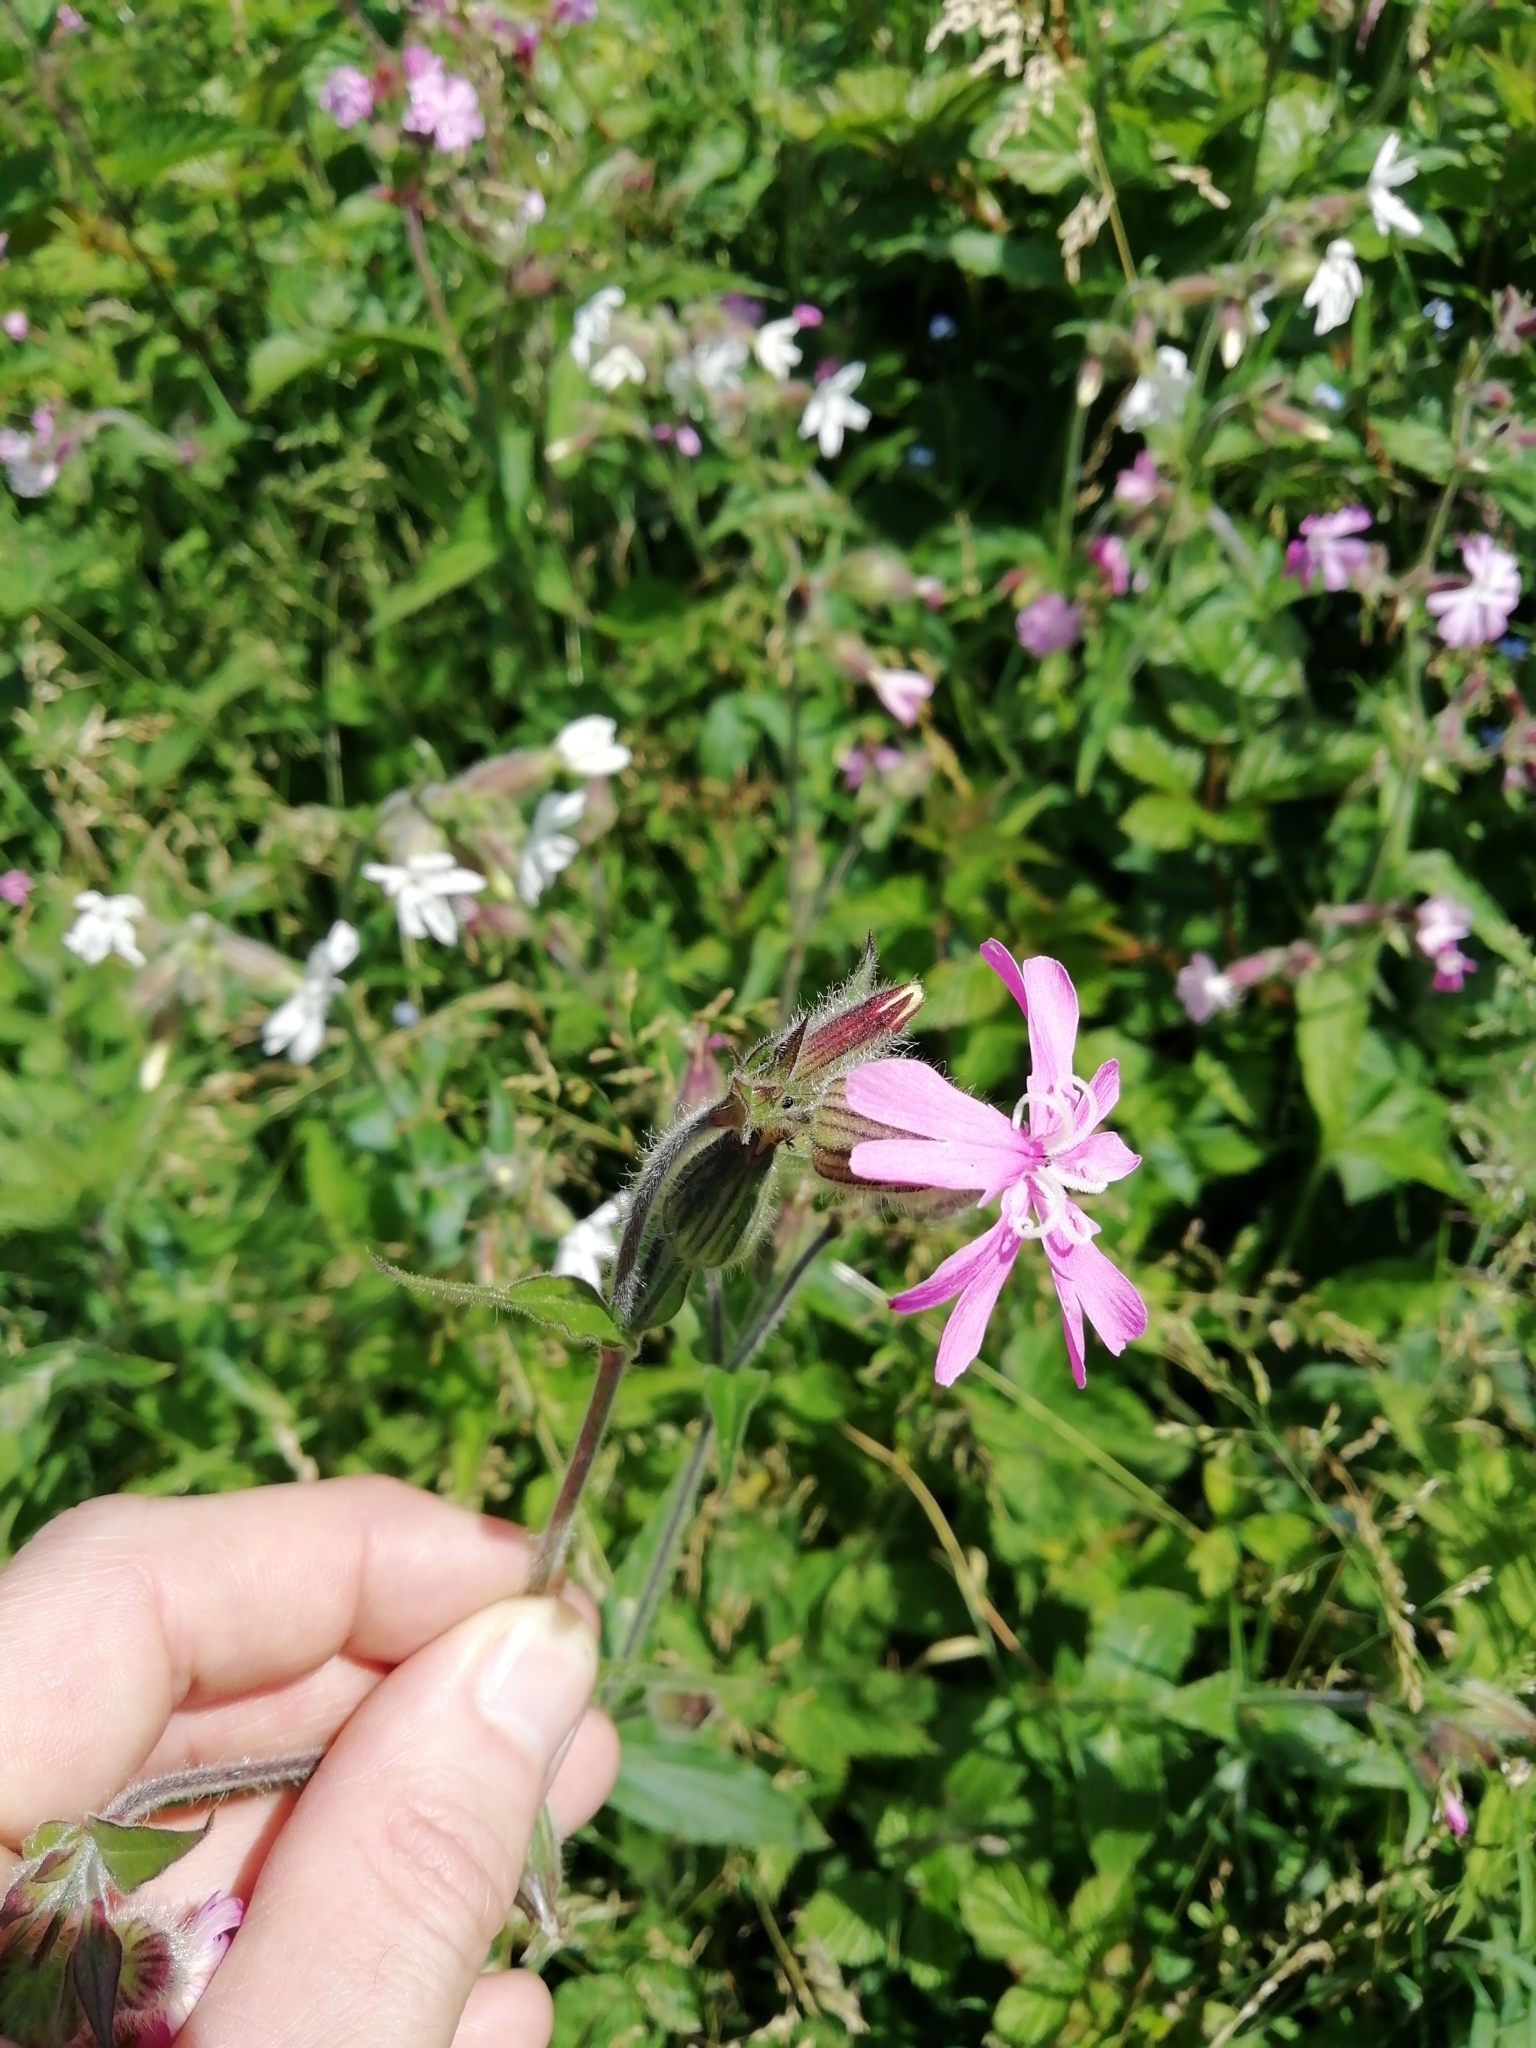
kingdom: Plantae
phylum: Tracheophyta
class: Magnoliopsida
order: Caryophyllales
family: Caryophyllaceae
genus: Silene
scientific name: Silene dioica
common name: Red campion
